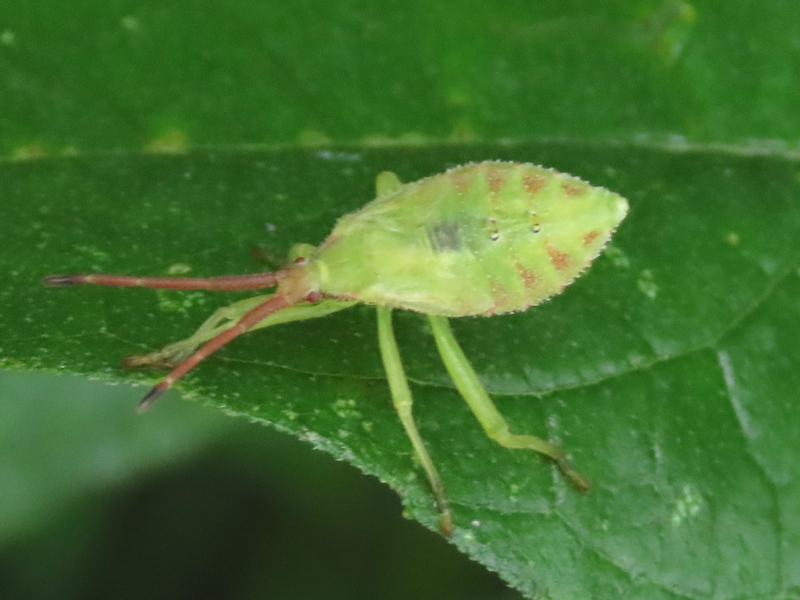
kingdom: Animalia
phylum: Arthropoda
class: Insecta
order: Hemiptera
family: Coreidae
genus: Piezogaster
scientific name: Piezogaster calcarator
